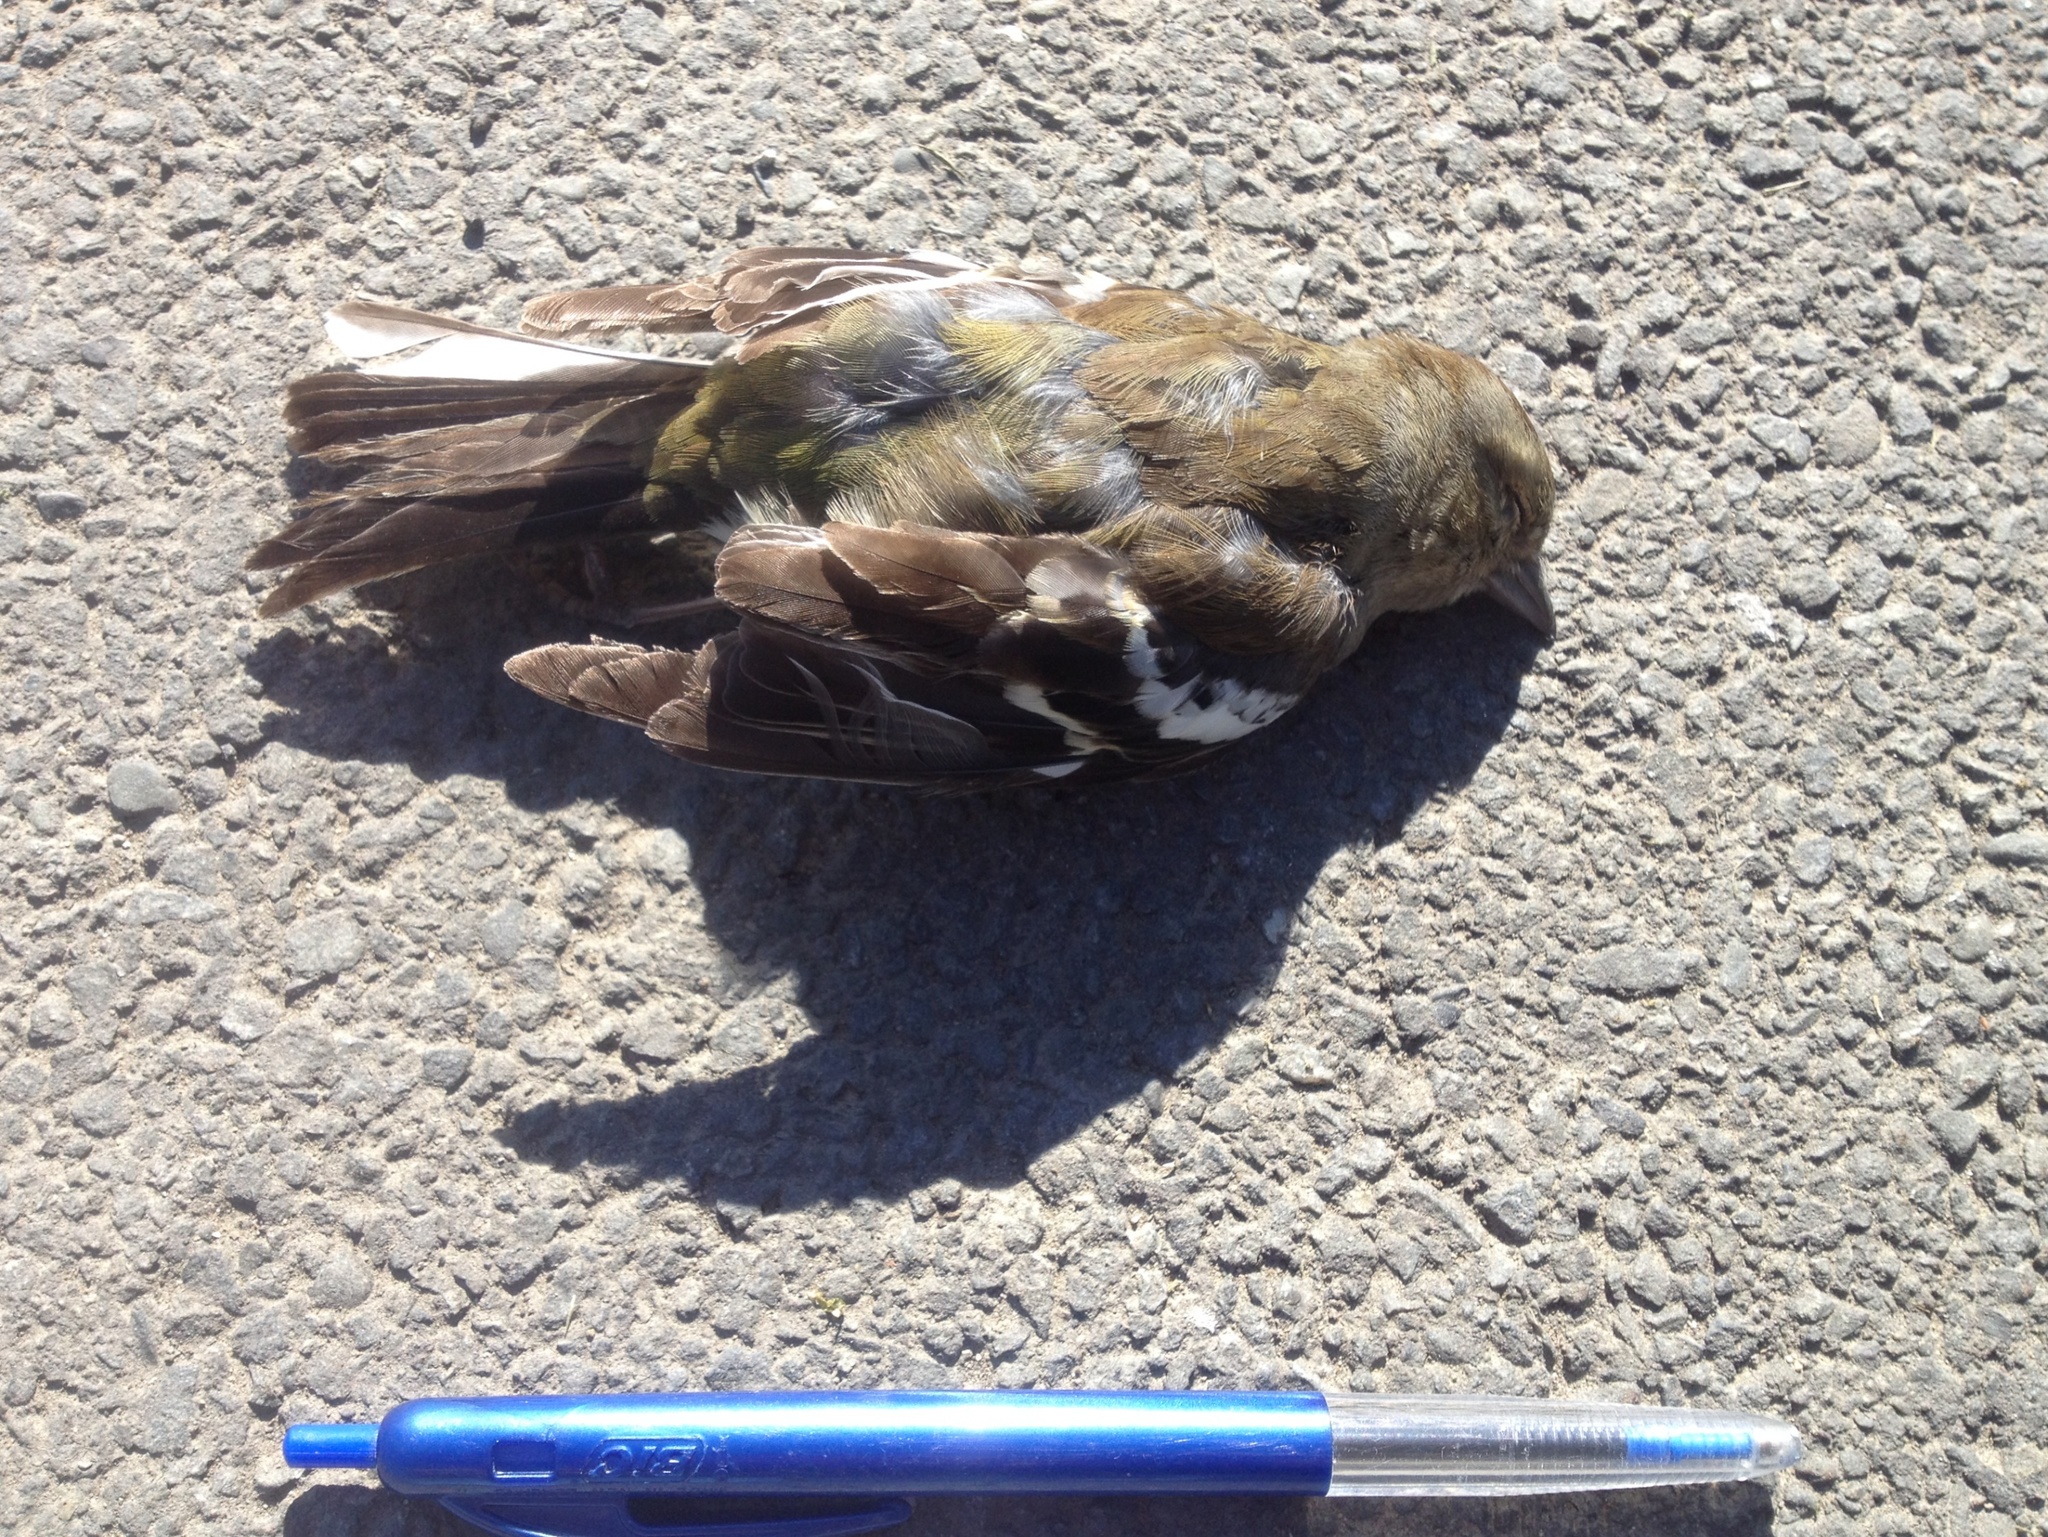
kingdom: Animalia
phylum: Chordata
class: Aves
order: Passeriformes
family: Fringillidae
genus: Fringilla
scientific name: Fringilla coelebs
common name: Common chaffinch
